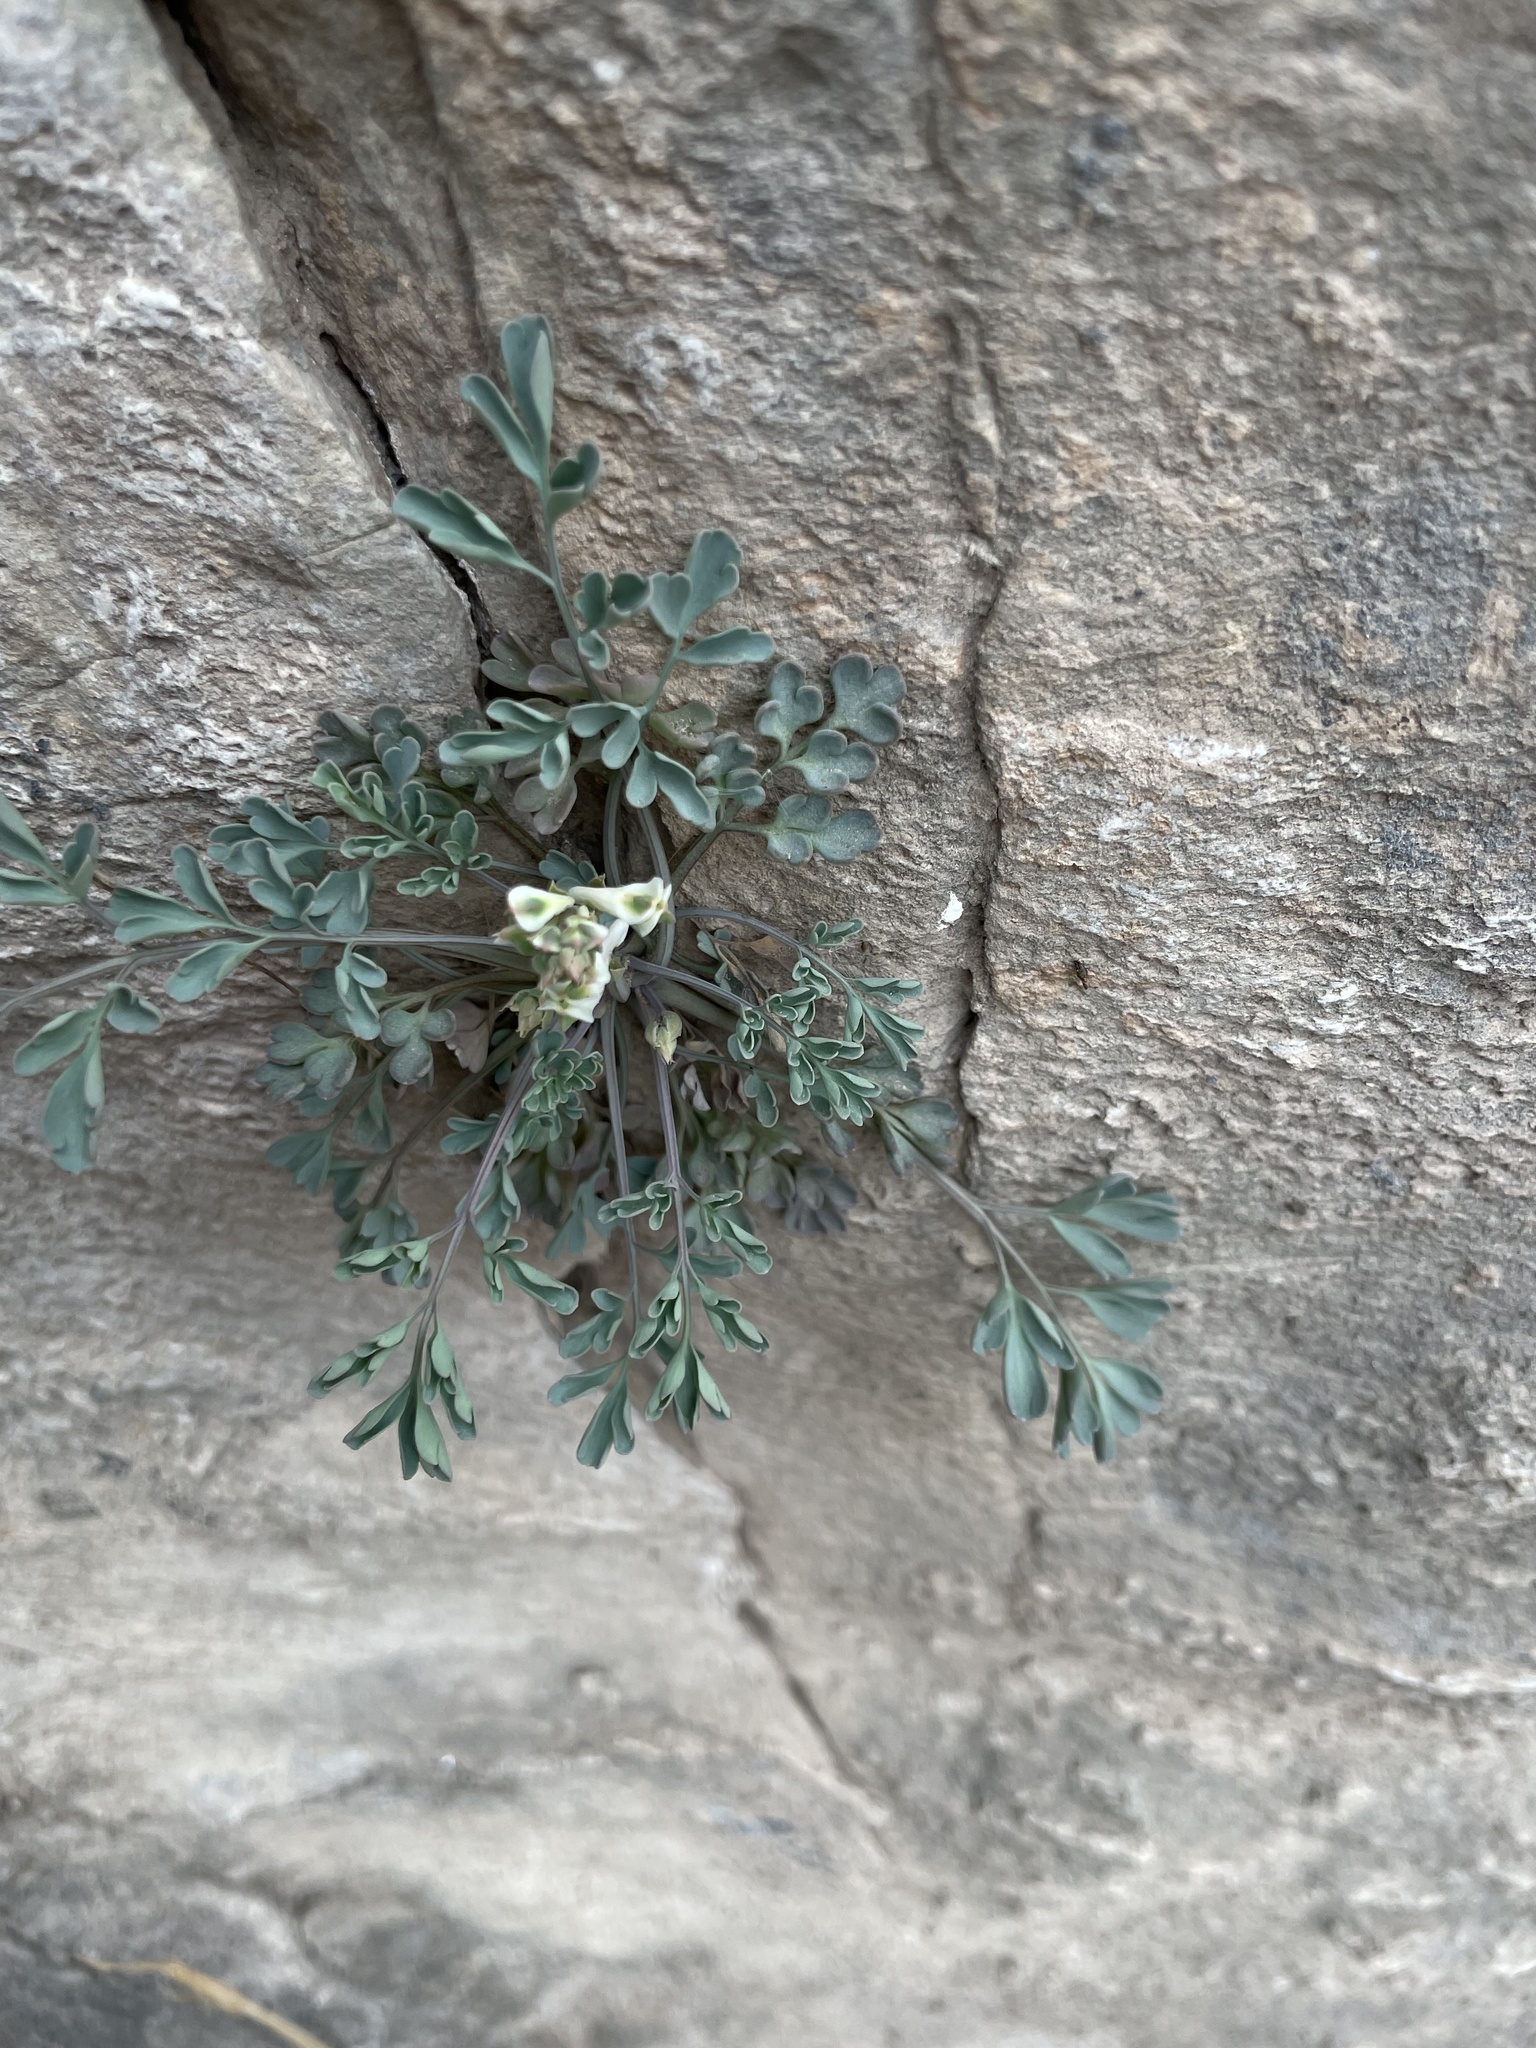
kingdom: Plantae
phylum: Tracheophyta
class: Magnoliopsida
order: Ranunculales
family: Papaveraceae
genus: Corydalis
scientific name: Corydalis fangshanensis
